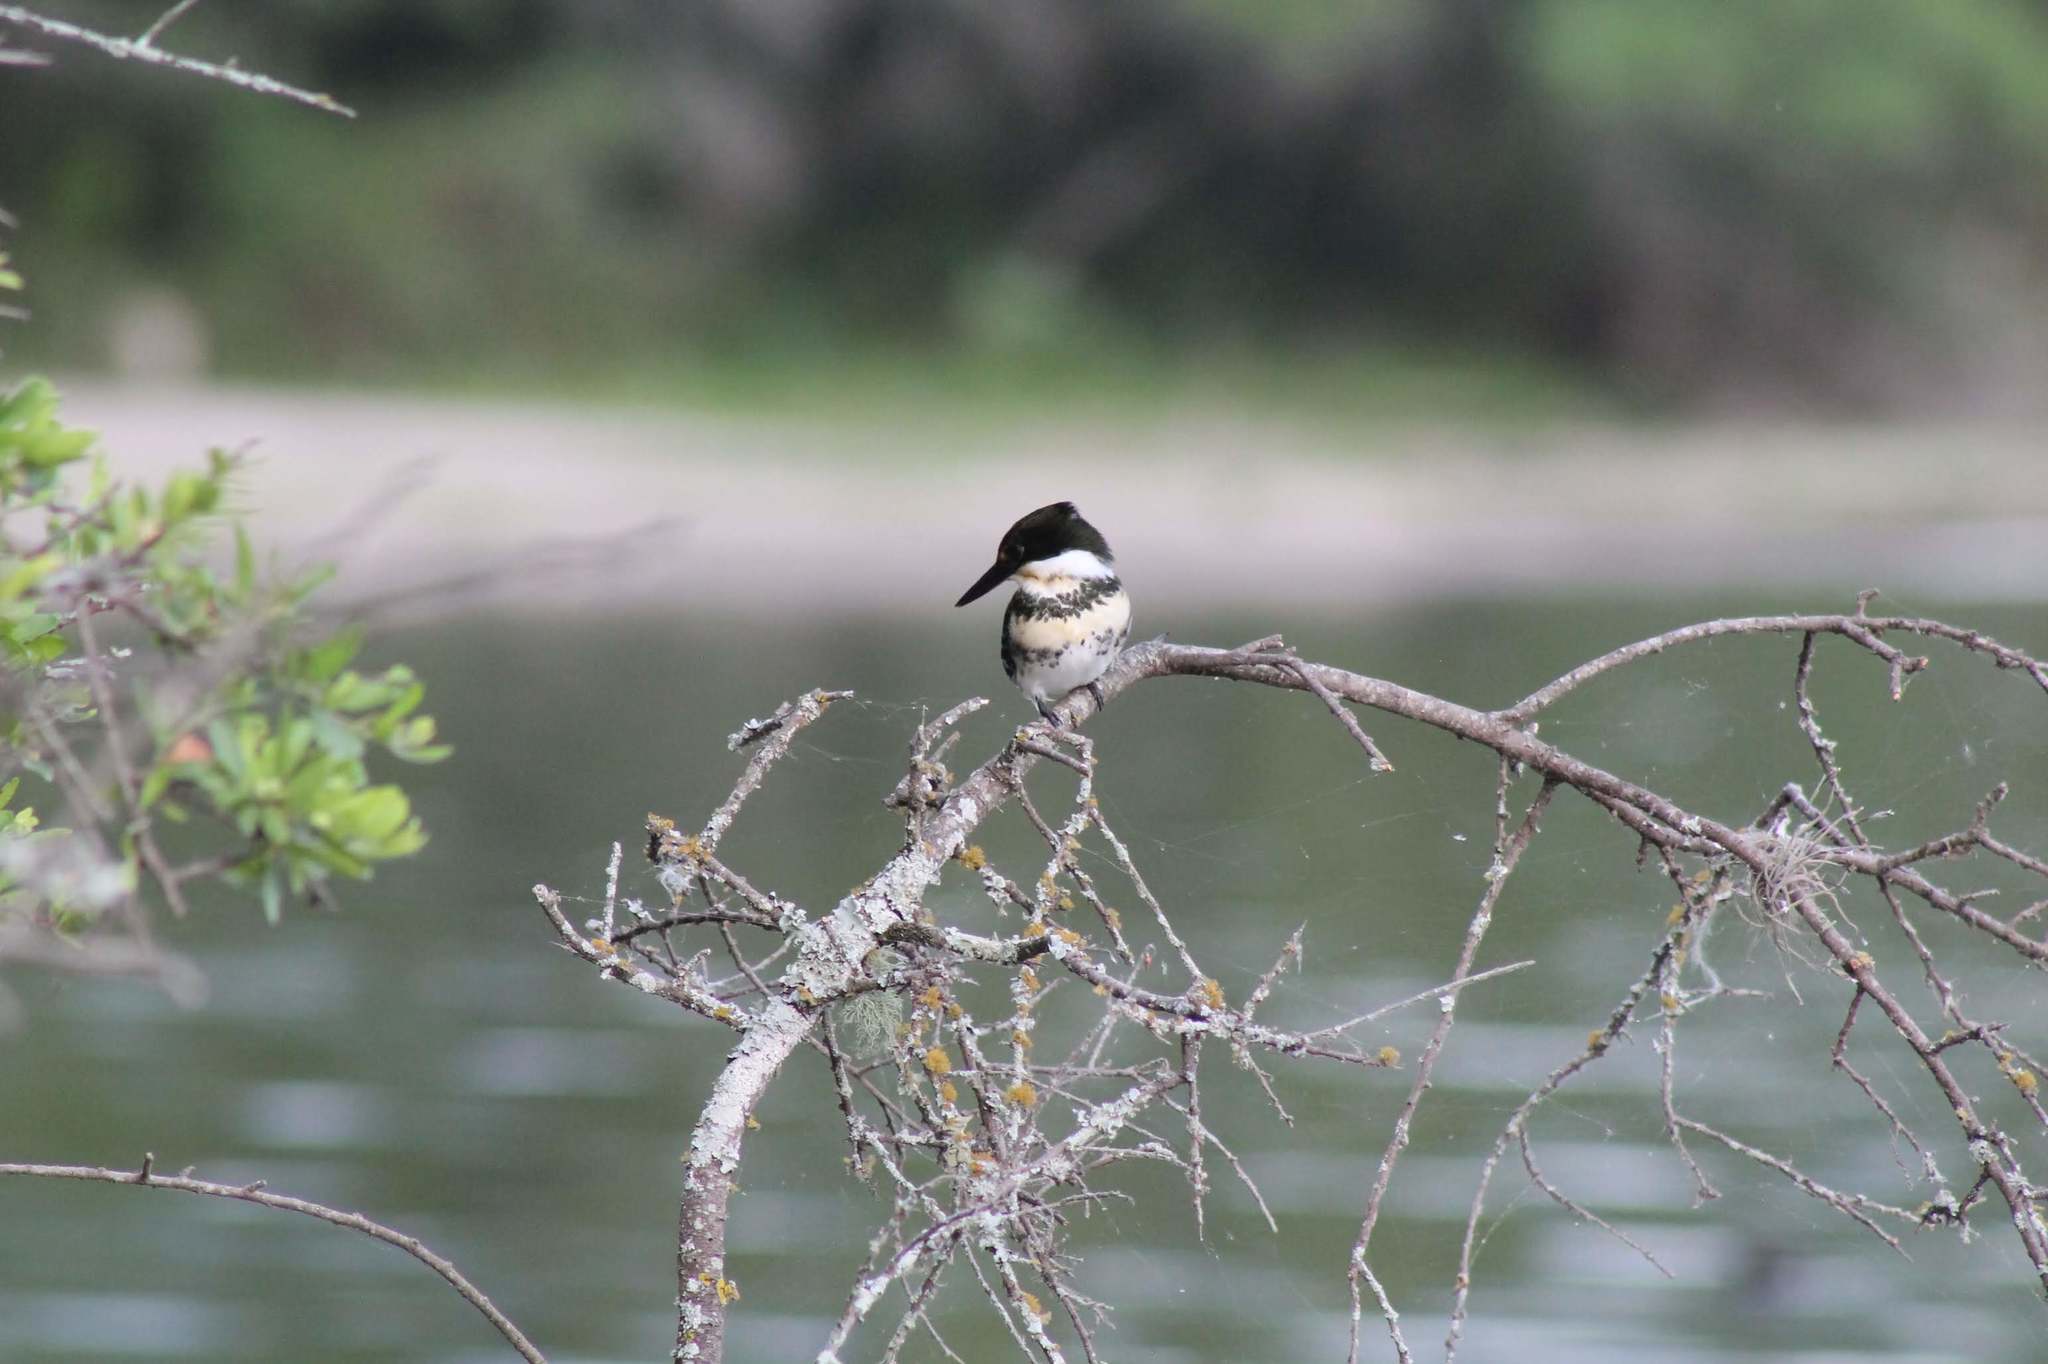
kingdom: Animalia
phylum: Chordata
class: Aves
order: Coraciiformes
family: Alcedinidae
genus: Chloroceryle
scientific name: Chloroceryle americana
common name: Green kingfisher
